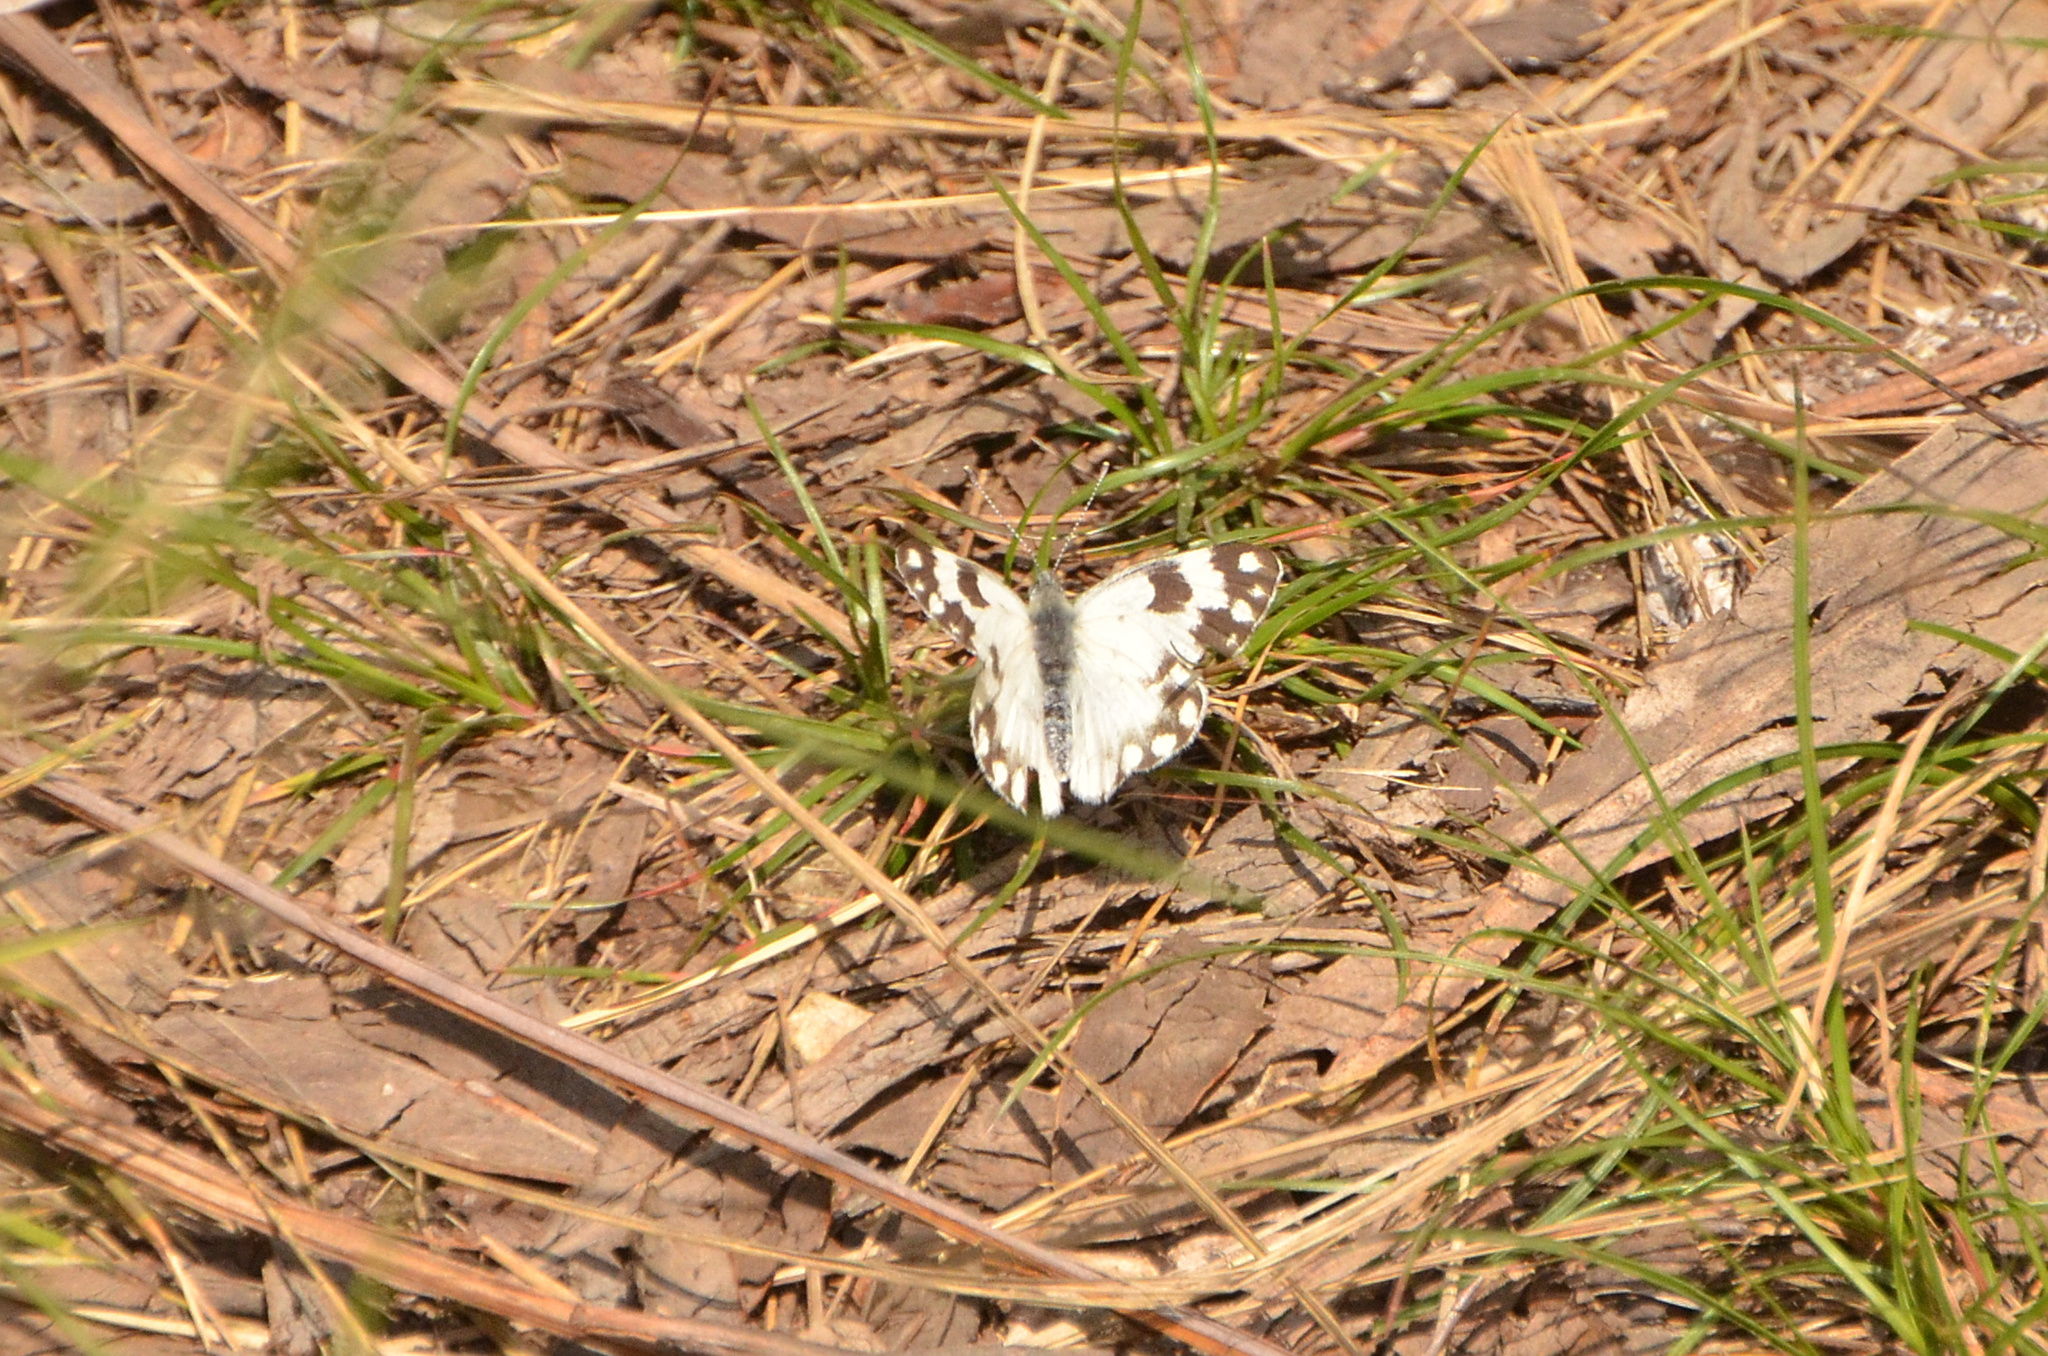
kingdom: Animalia
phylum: Arthropoda
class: Insecta
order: Lepidoptera
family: Pieridae
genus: Pontia
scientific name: Pontia helice
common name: Meadow white
